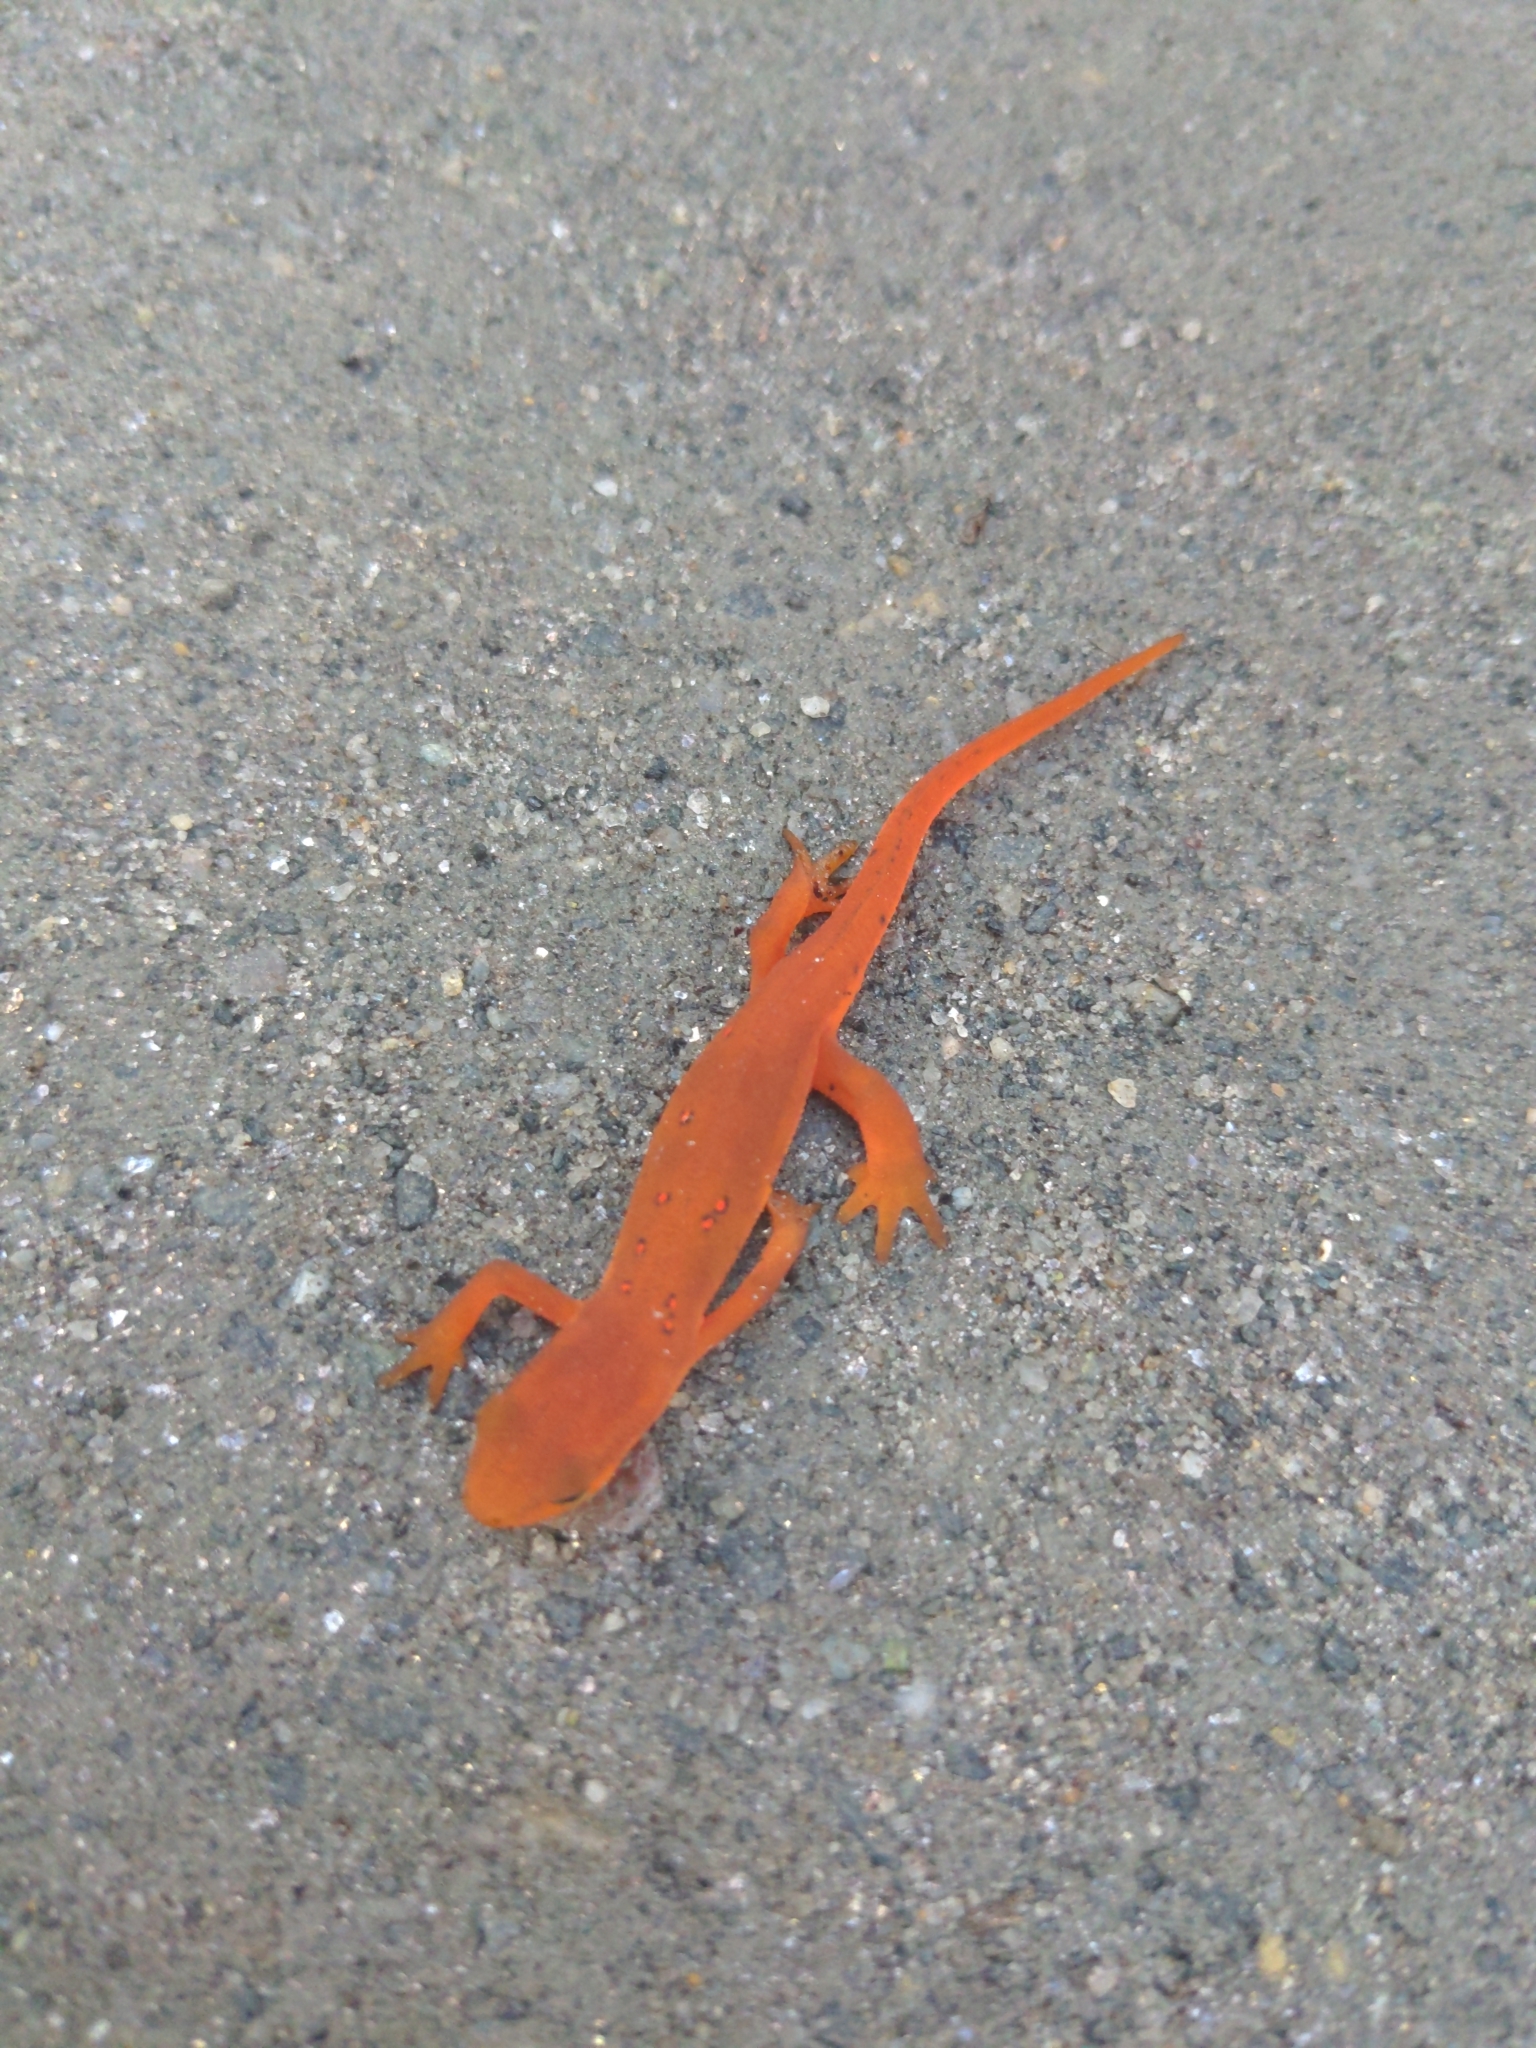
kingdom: Animalia
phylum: Chordata
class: Amphibia
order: Caudata
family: Salamandridae
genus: Notophthalmus
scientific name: Notophthalmus viridescens
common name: Eastern newt
